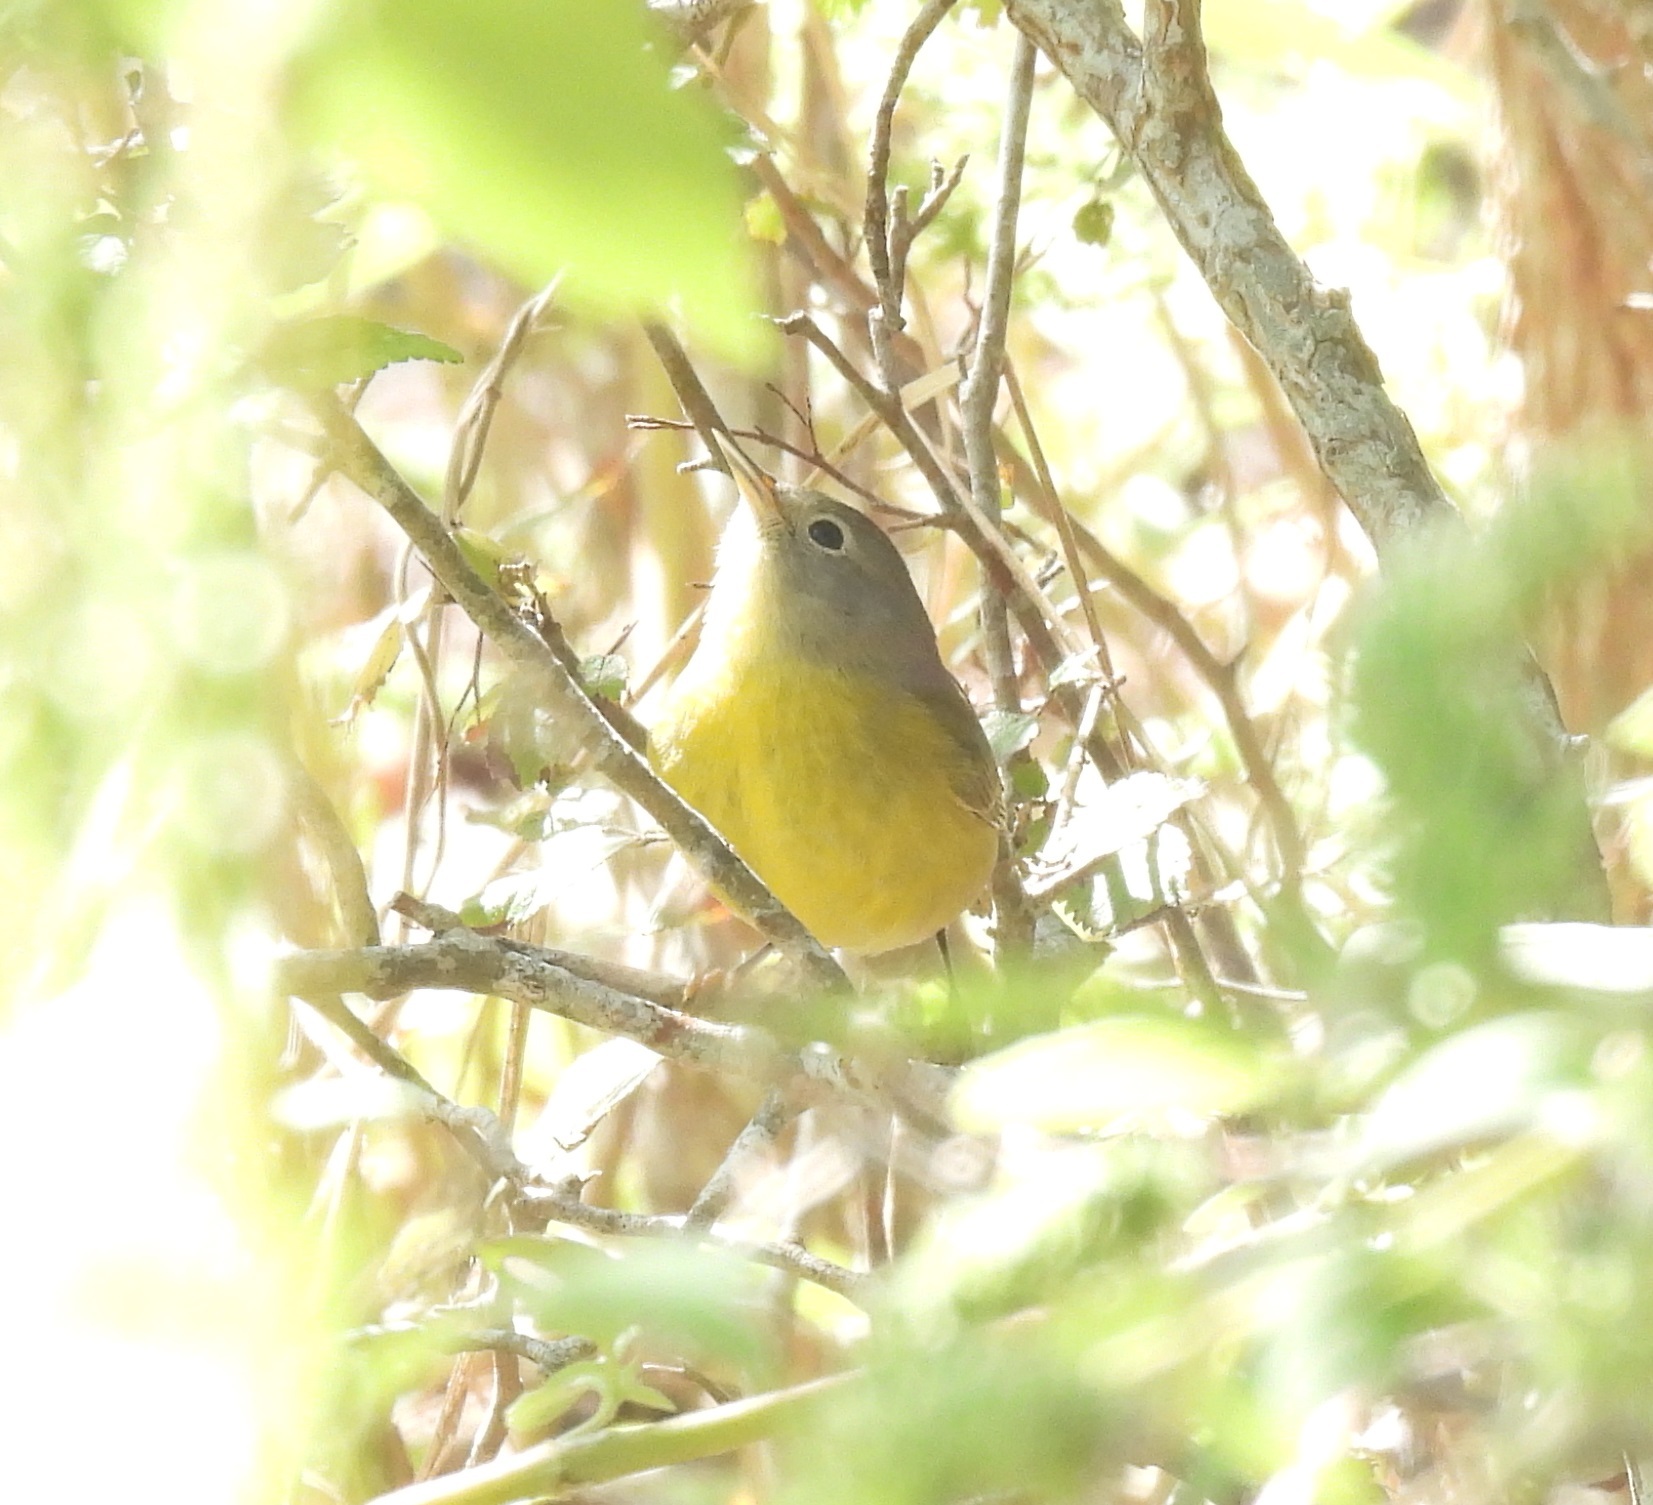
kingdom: Animalia
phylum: Chordata
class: Aves
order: Passeriformes
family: Parulidae
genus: Leiothlypis
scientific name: Leiothlypis ruficapilla
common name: Nashville warbler
